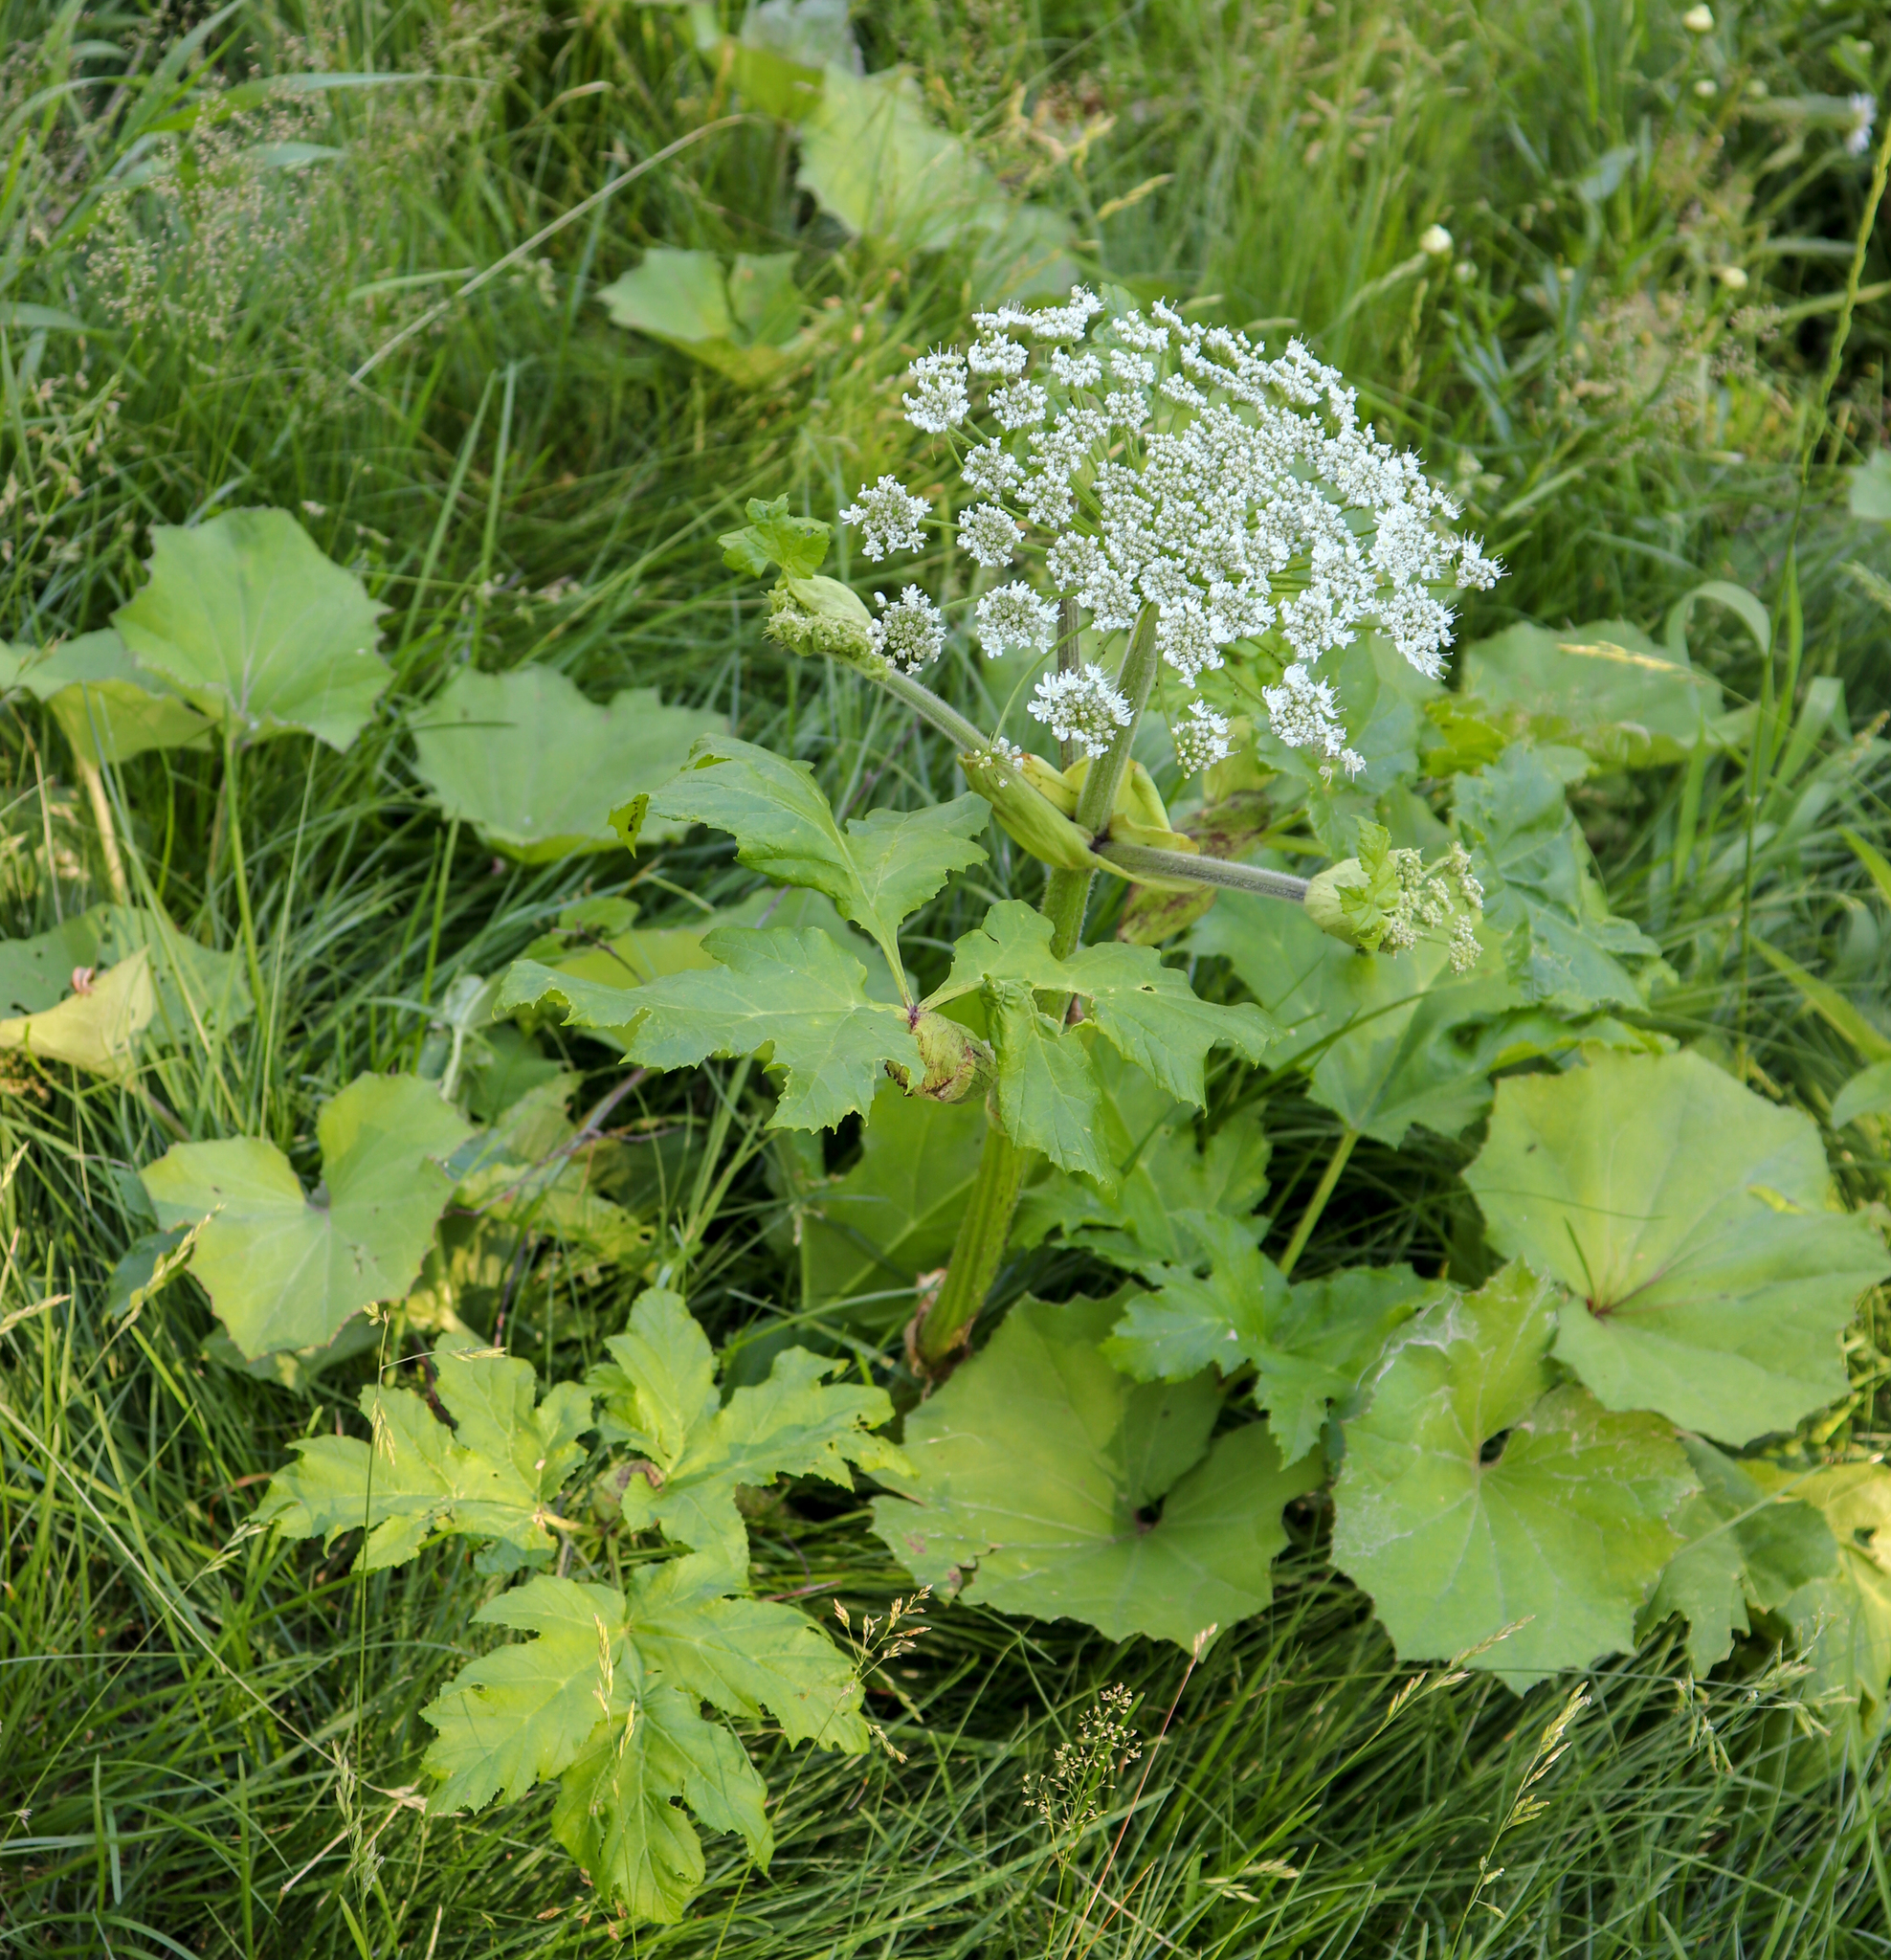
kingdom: Plantae
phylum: Tracheophyta
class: Magnoliopsida
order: Apiales
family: Apiaceae
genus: Heracleum
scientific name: Heracleum sosnowskyi
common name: Sosnowsky's hogweed
